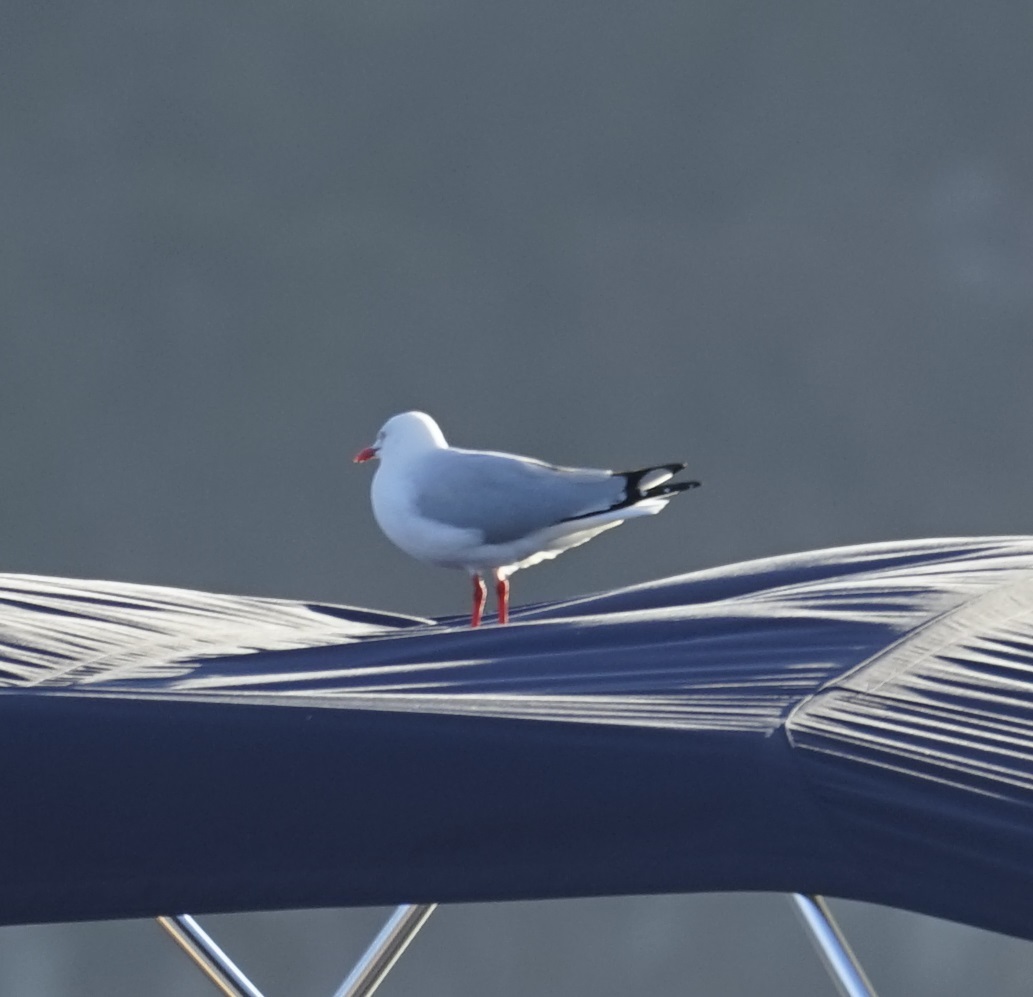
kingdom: Animalia
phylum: Chordata
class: Aves
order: Charadriiformes
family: Laridae
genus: Chroicocephalus
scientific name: Chroicocephalus novaehollandiae
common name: Silver gull
